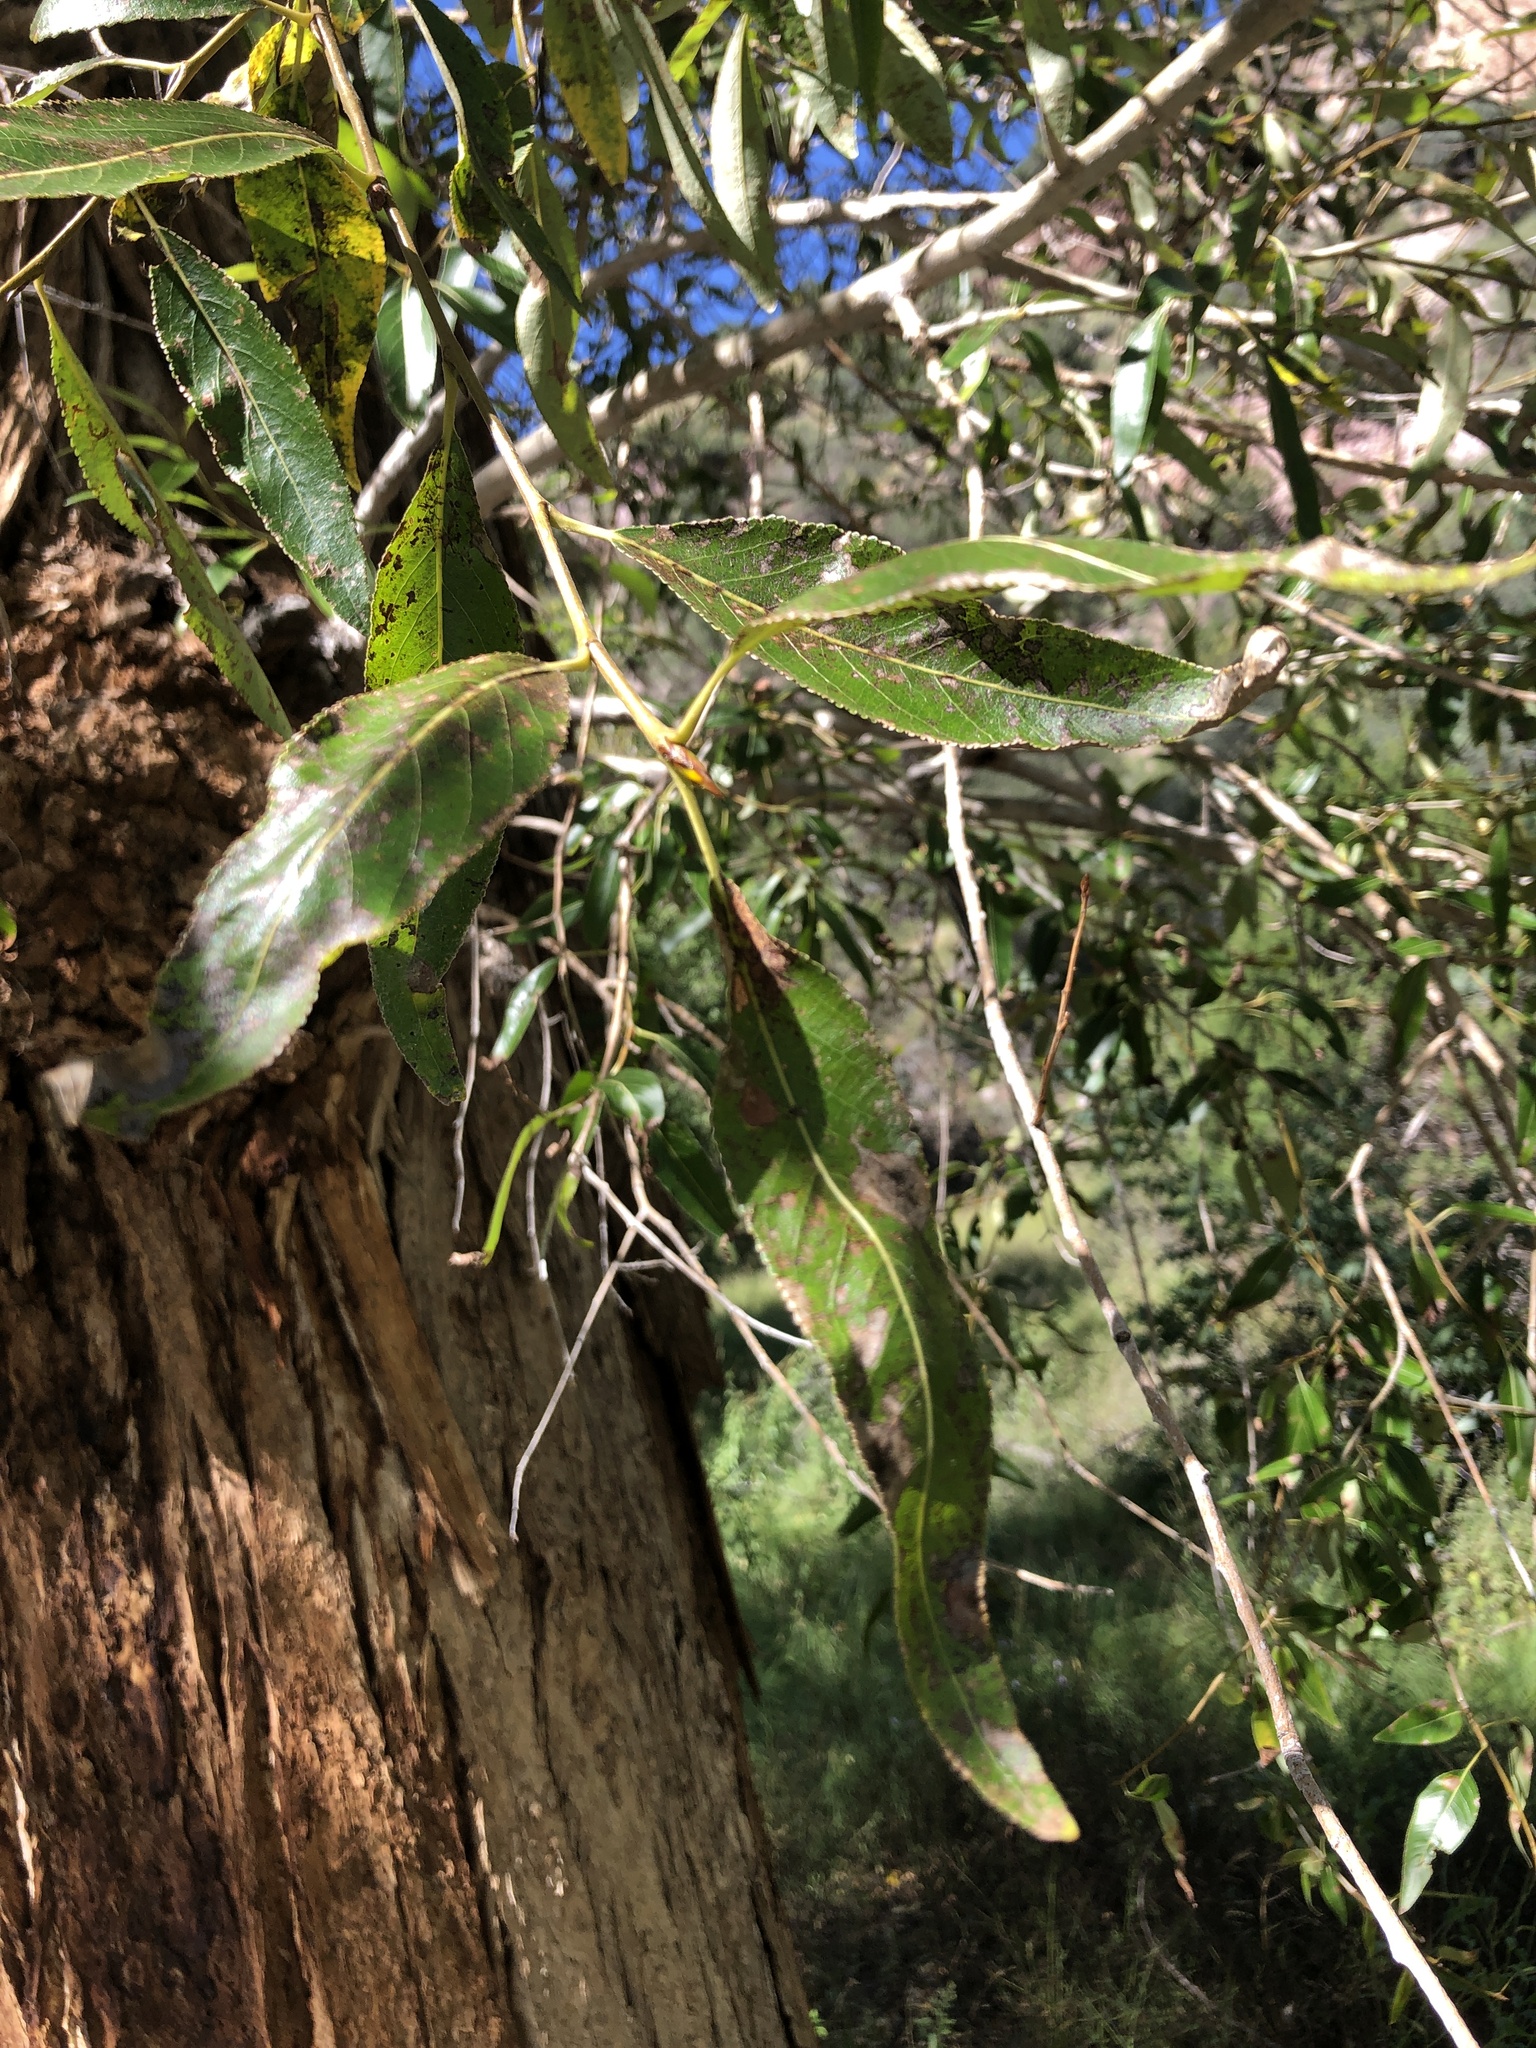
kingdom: Plantae
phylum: Tracheophyta
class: Magnoliopsida
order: Malpighiales
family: Salicaceae
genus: Populus
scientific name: Populus angustifolia
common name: Willow cottonwood
